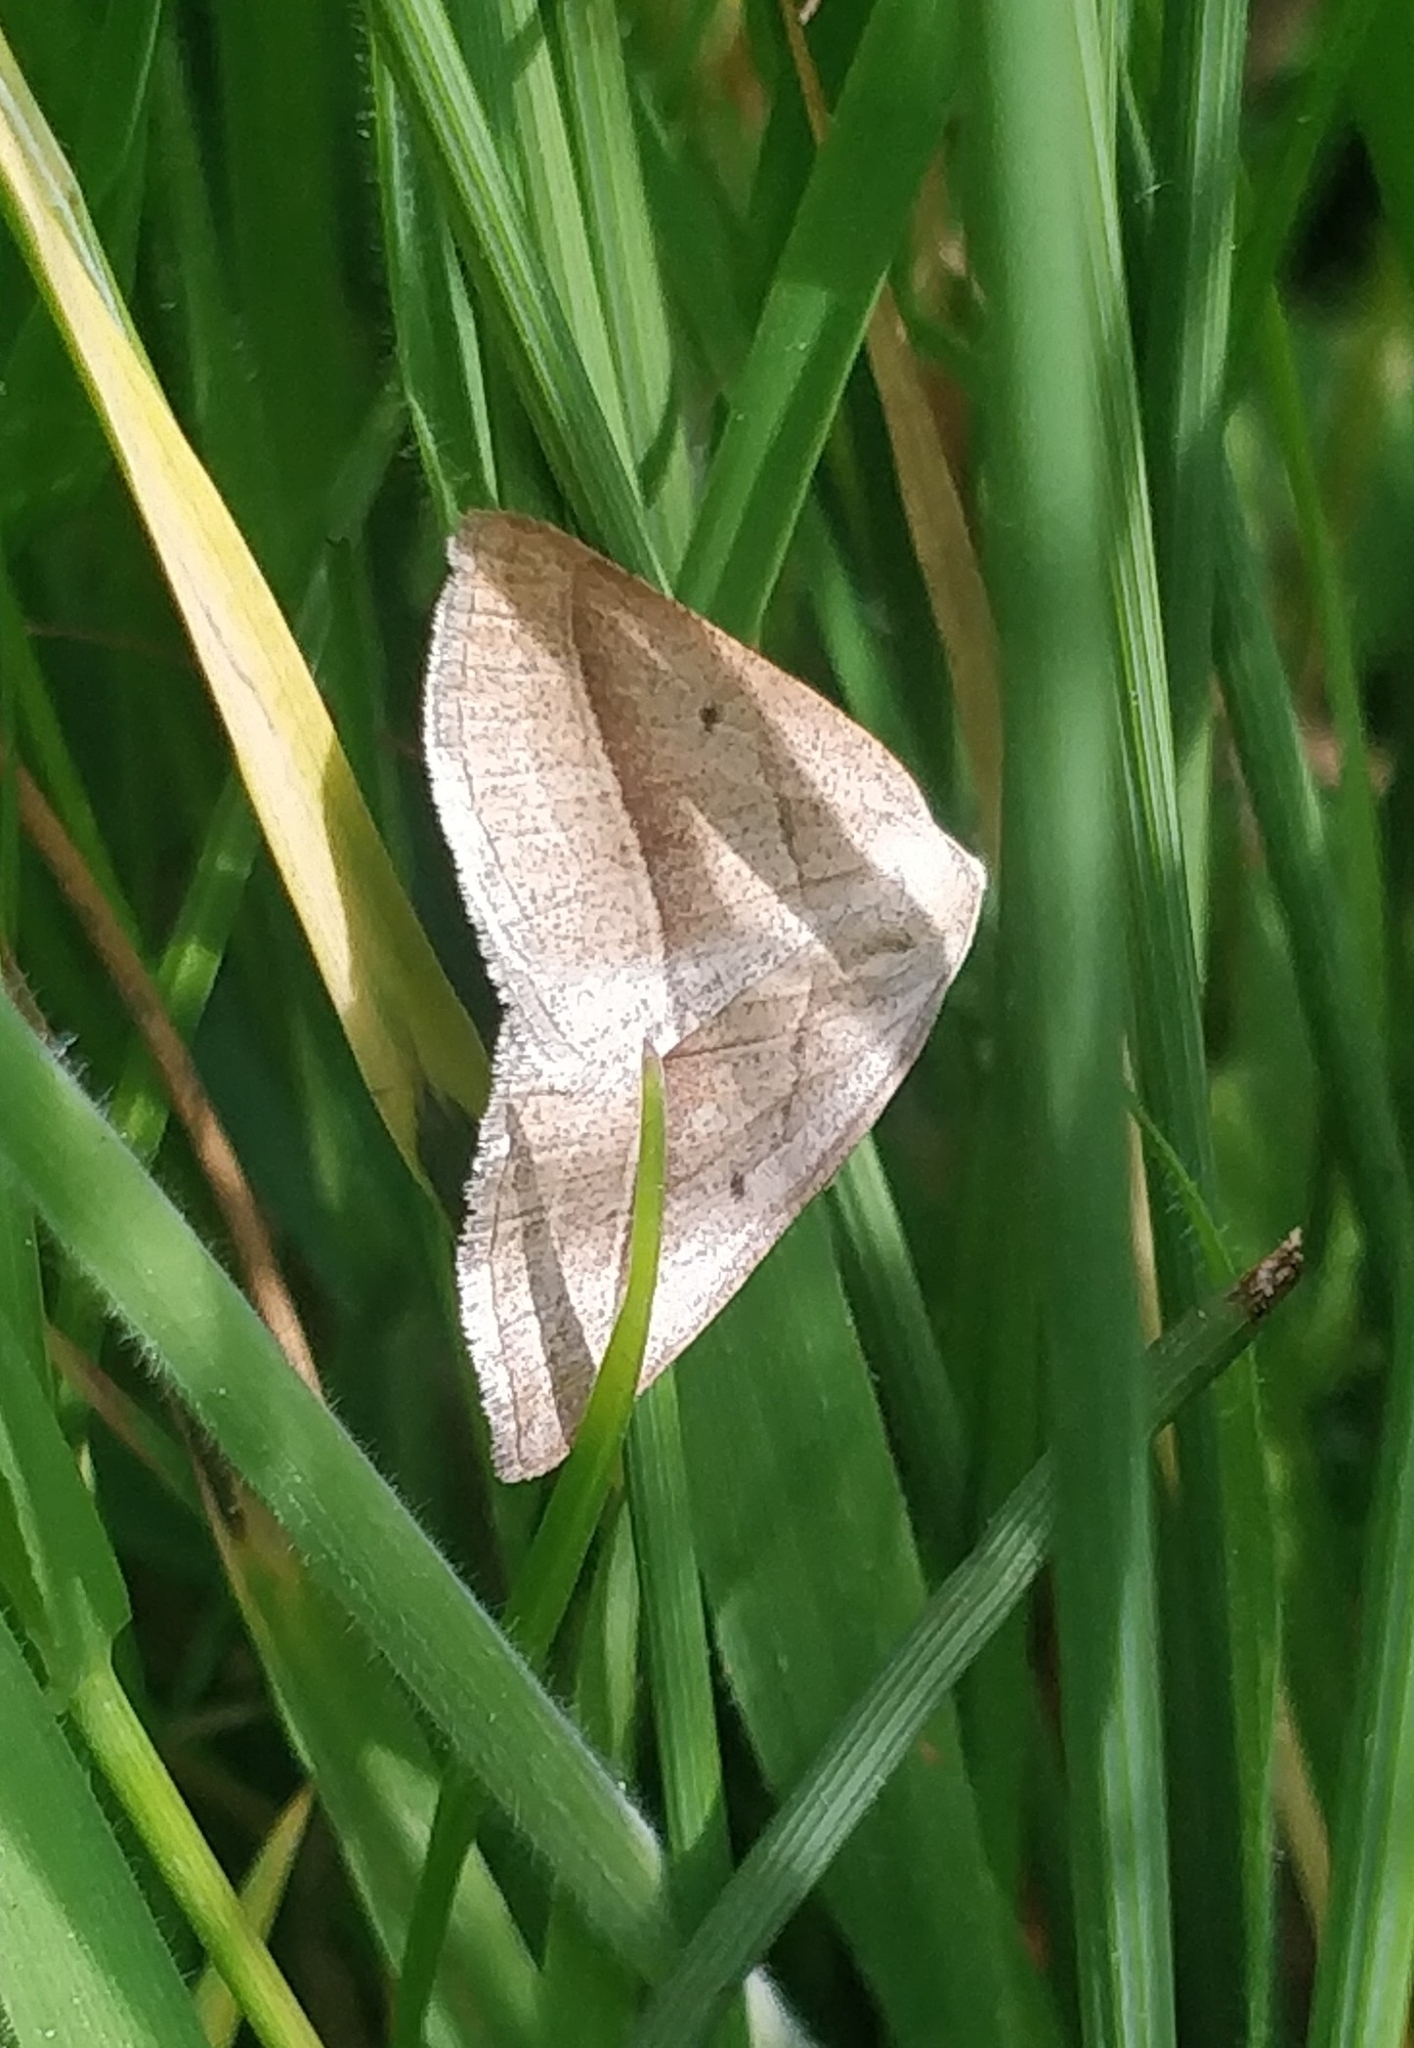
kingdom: Animalia
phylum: Arthropoda
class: Insecta
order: Lepidoptera
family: Pterophoridae
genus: Pterophorus
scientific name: Pterophorus Petrophora chlorosata
